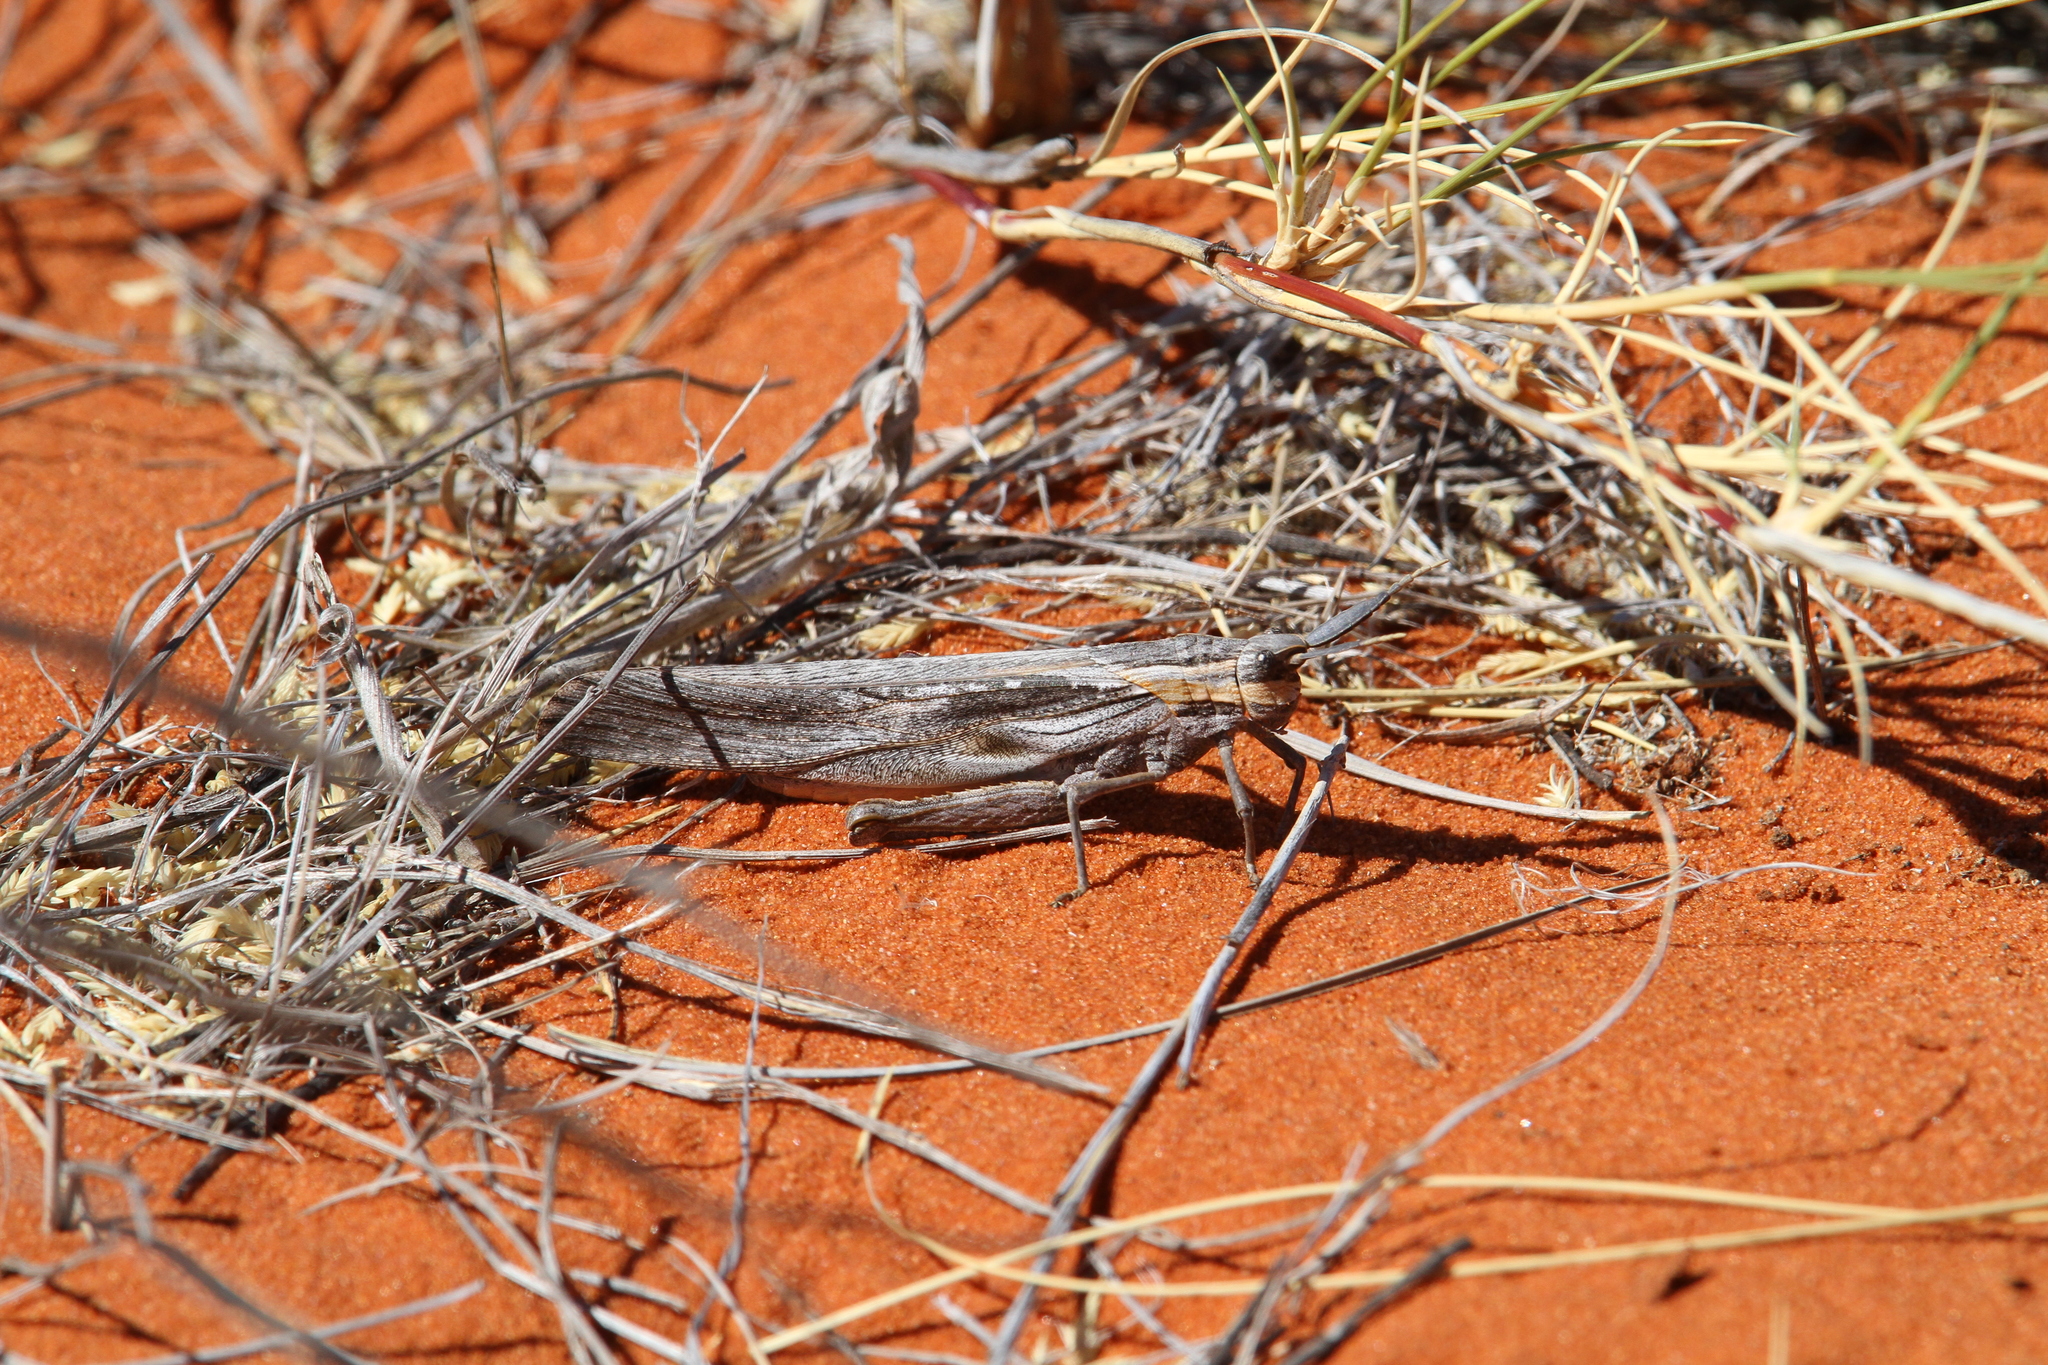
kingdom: Animalia
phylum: Arthropoda
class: Insecta
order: Orthoptera
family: Pamphagidae
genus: Lamarckiana
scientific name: Lamarckiana cucullata
